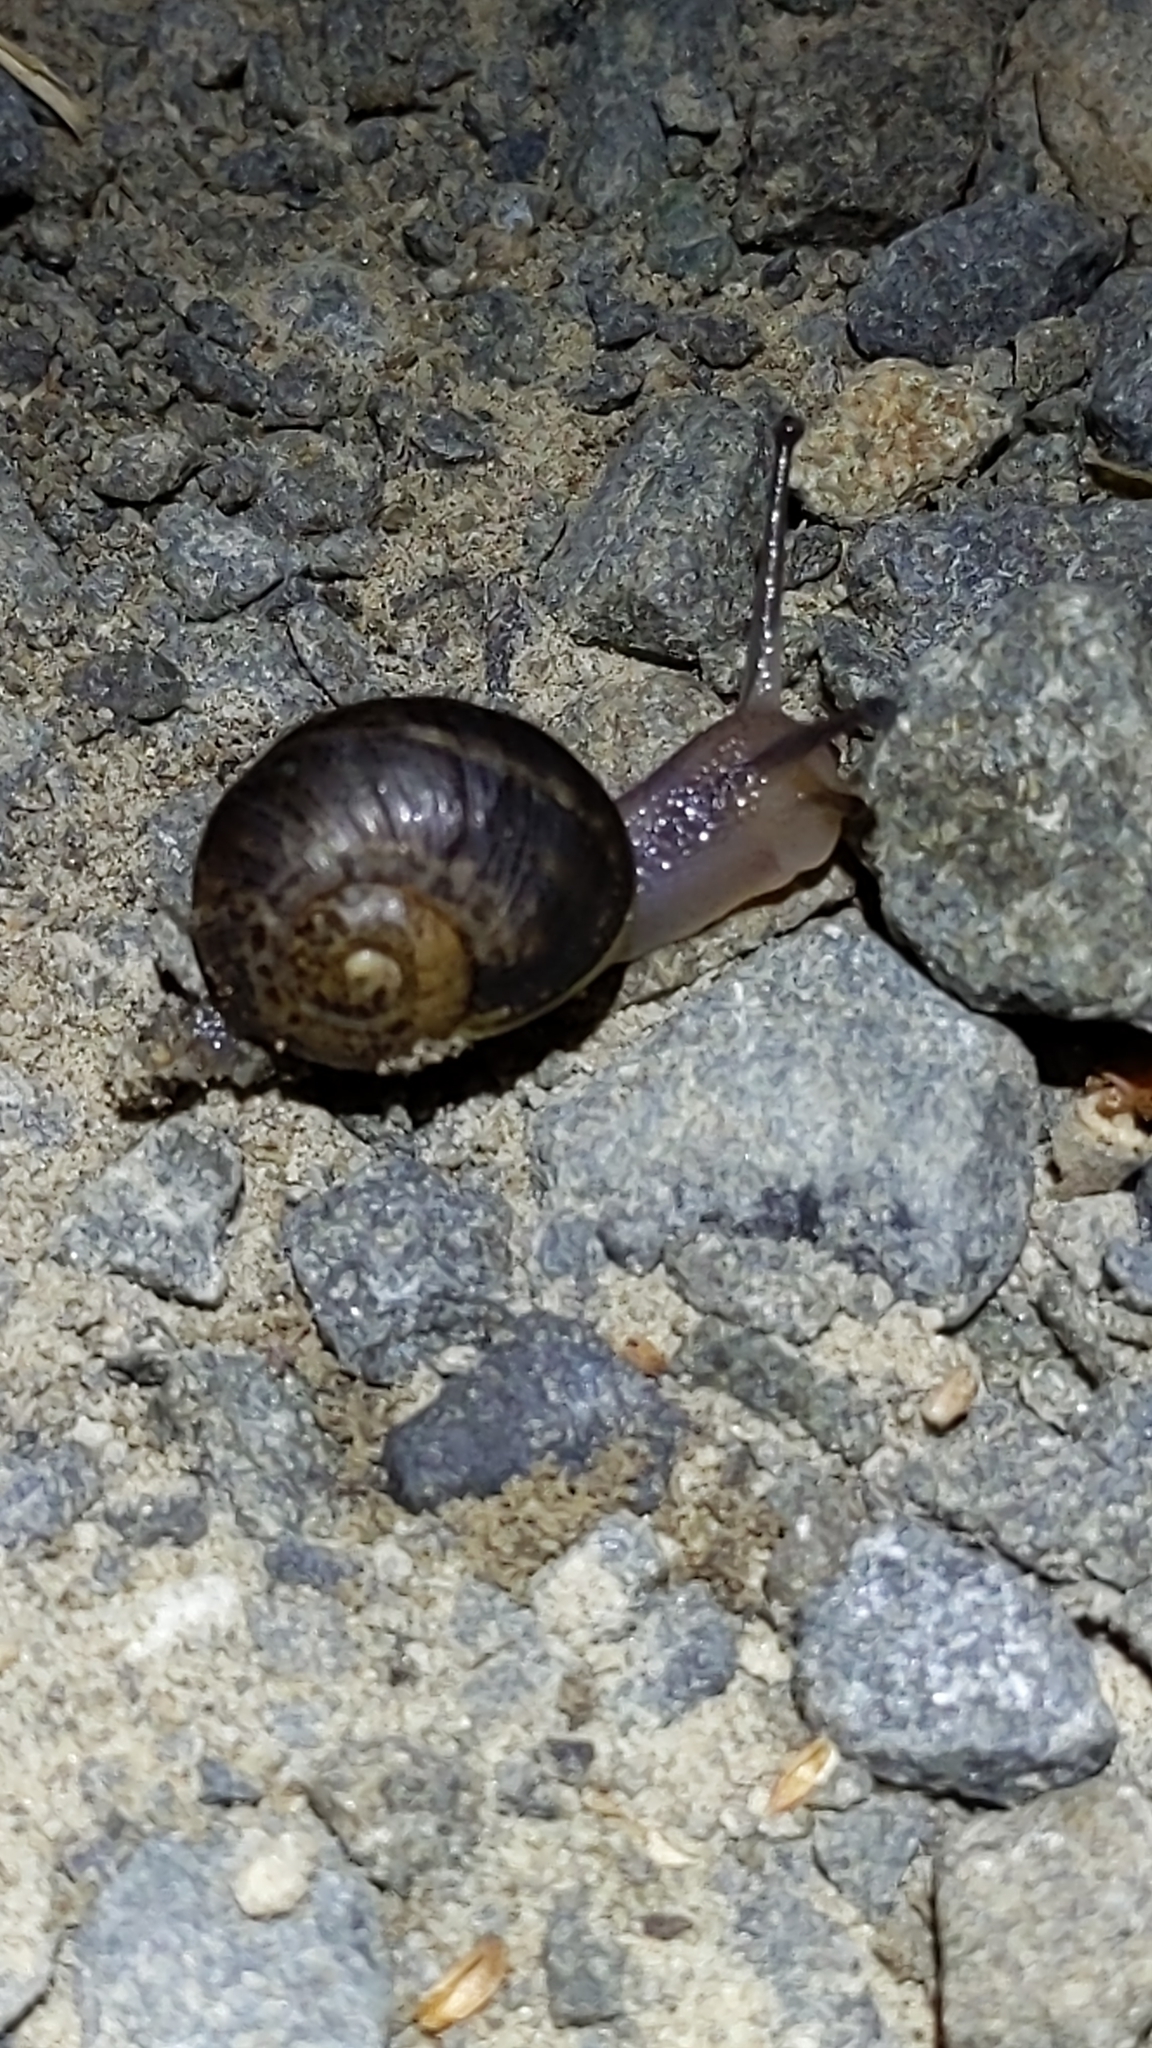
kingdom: Animalia
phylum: Mollusca
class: Gastropoda
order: Stylommatophora
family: Helicidae
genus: Cornu
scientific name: Cornu aspersum
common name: Brown garden snail
